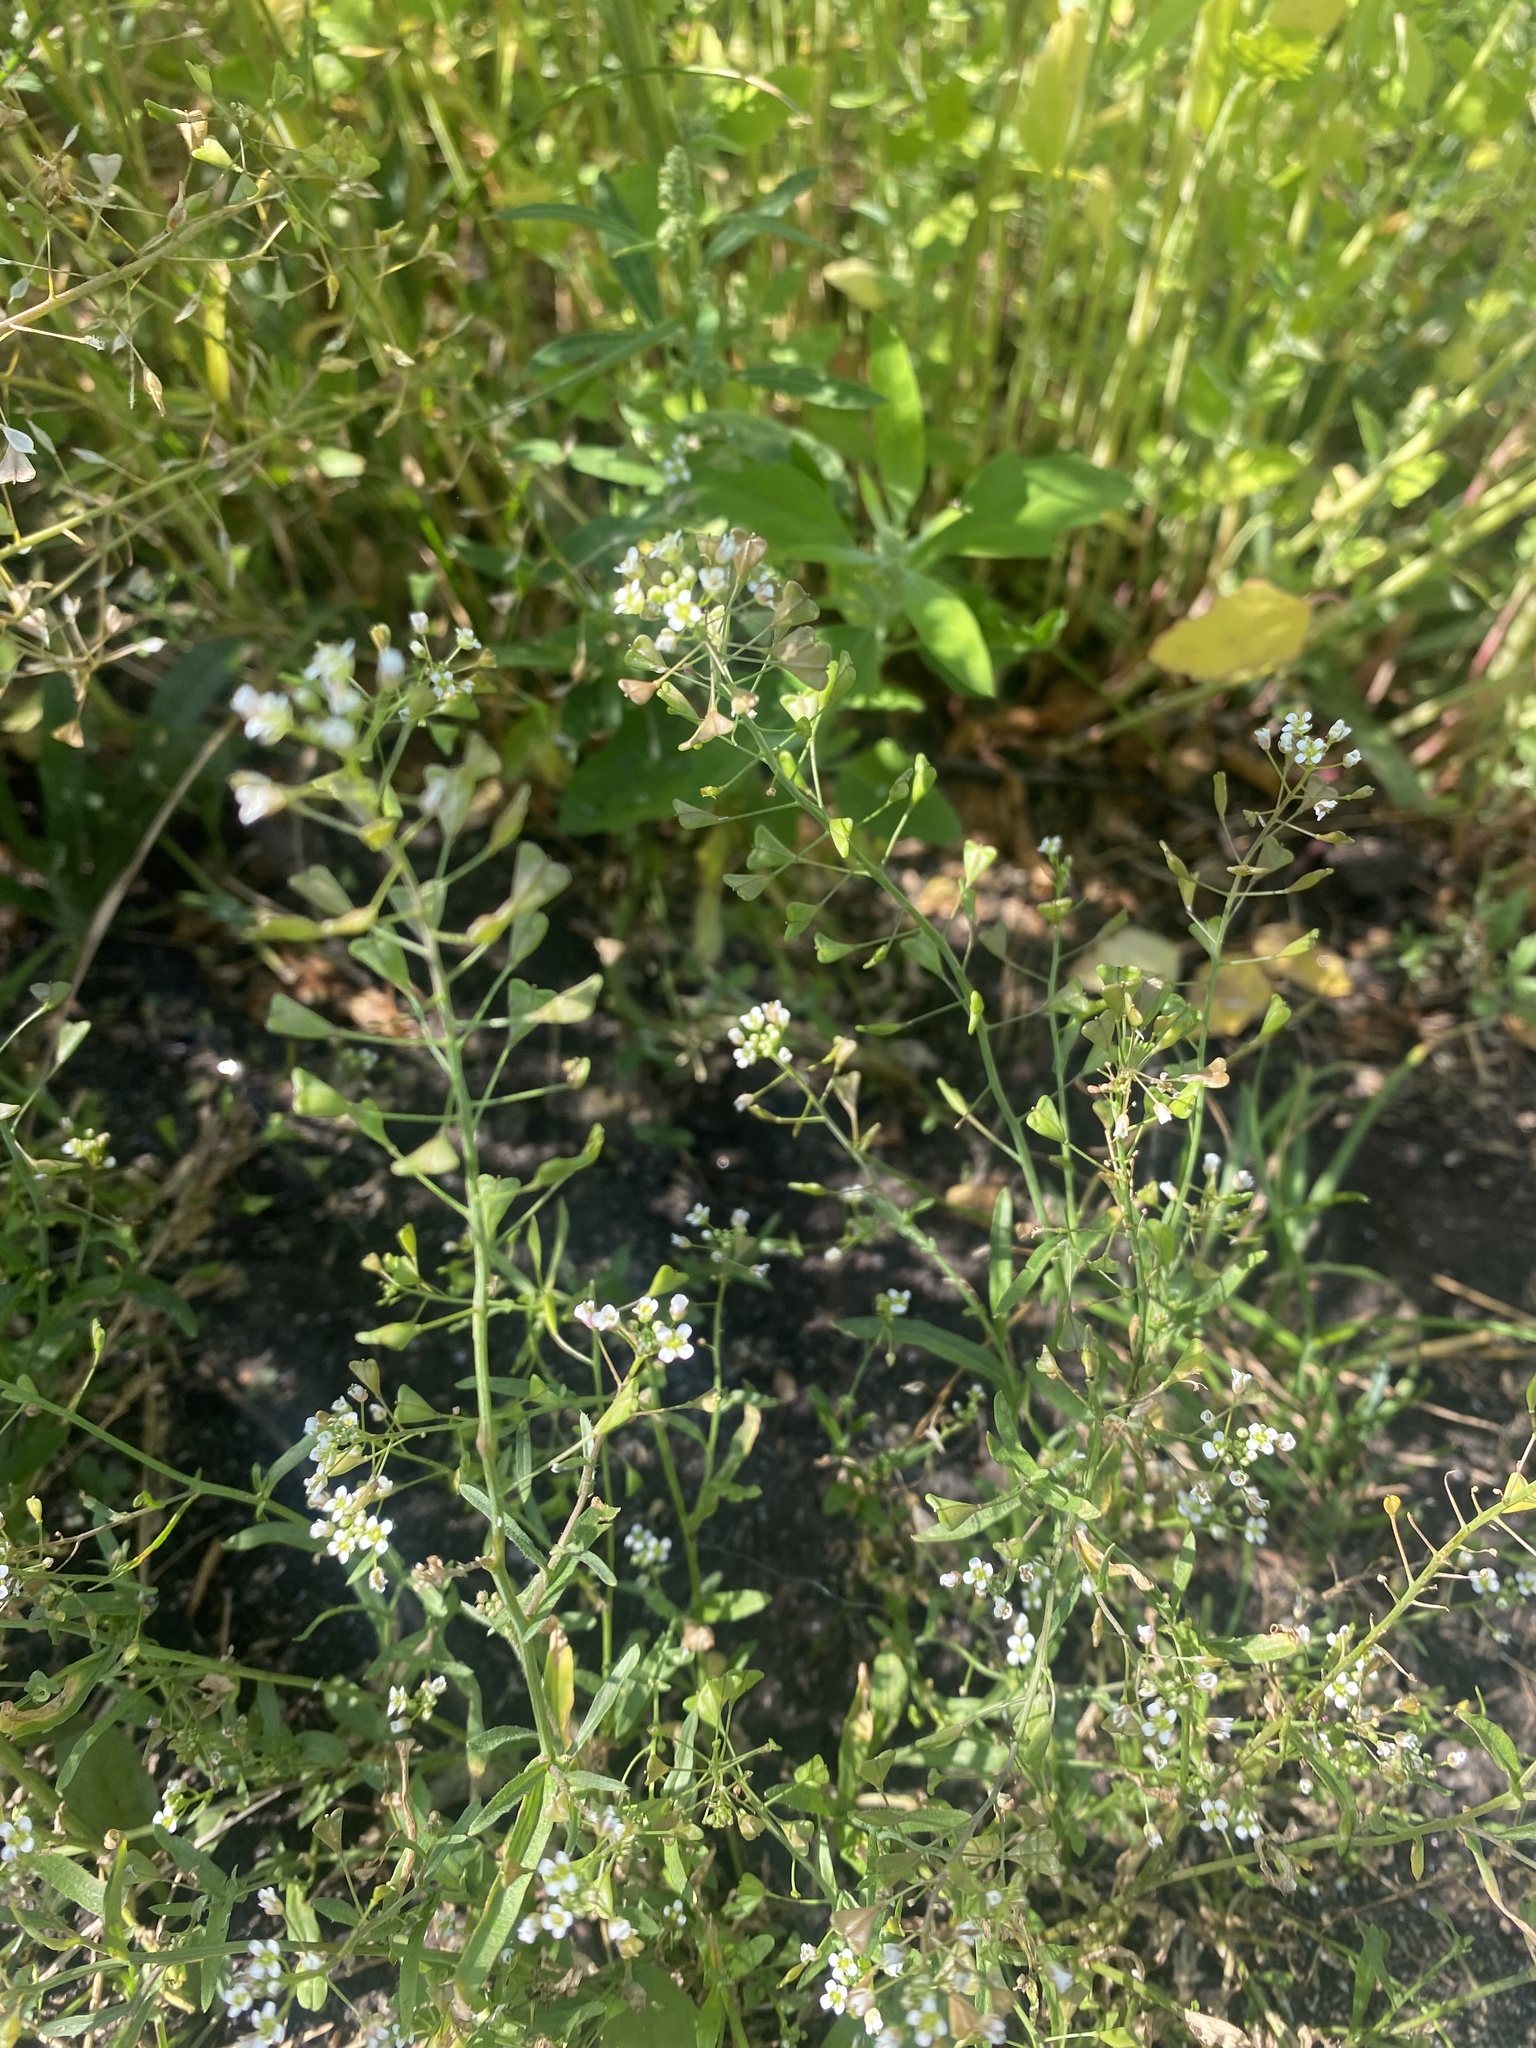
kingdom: Plantae
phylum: Tracheophyta
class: Magnoliopsida
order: Brassicales
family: Brassicaceae
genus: Capsella
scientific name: Capsella bursa-pastoris
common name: Shepherd's purse
